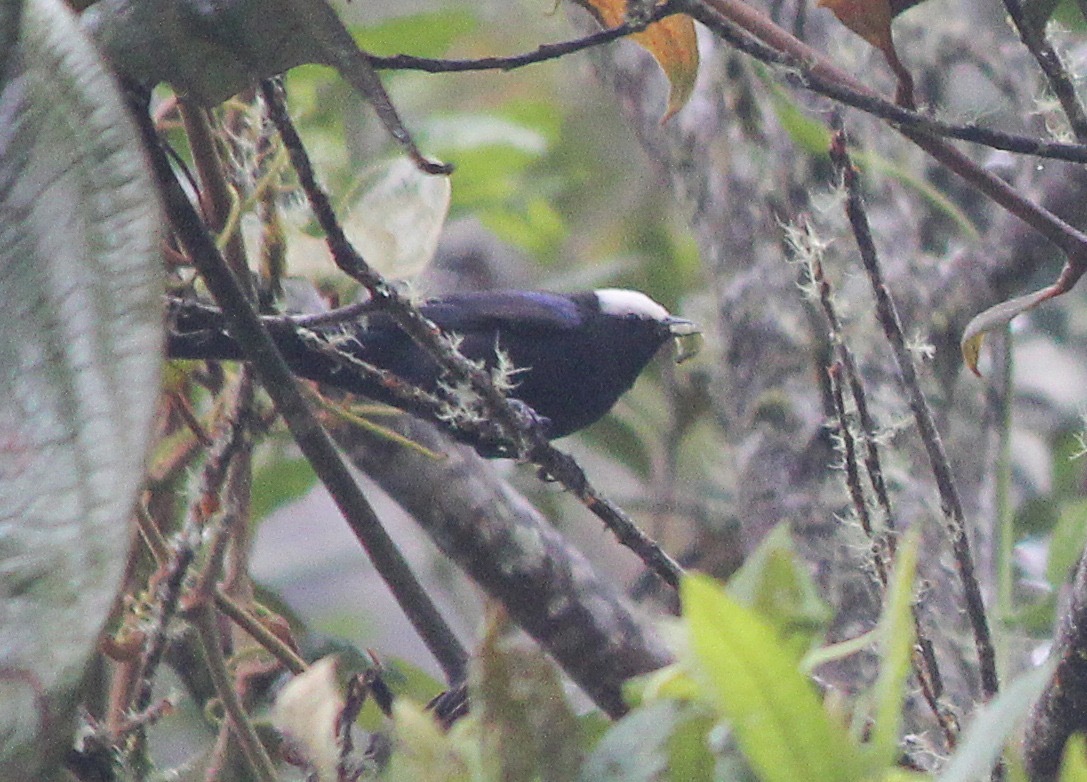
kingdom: Animalia
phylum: Chordata
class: Aves
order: Passeriformes
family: Thraupidae
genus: Conirostrum
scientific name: Conirostrum albifrons
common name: Capped conebill
